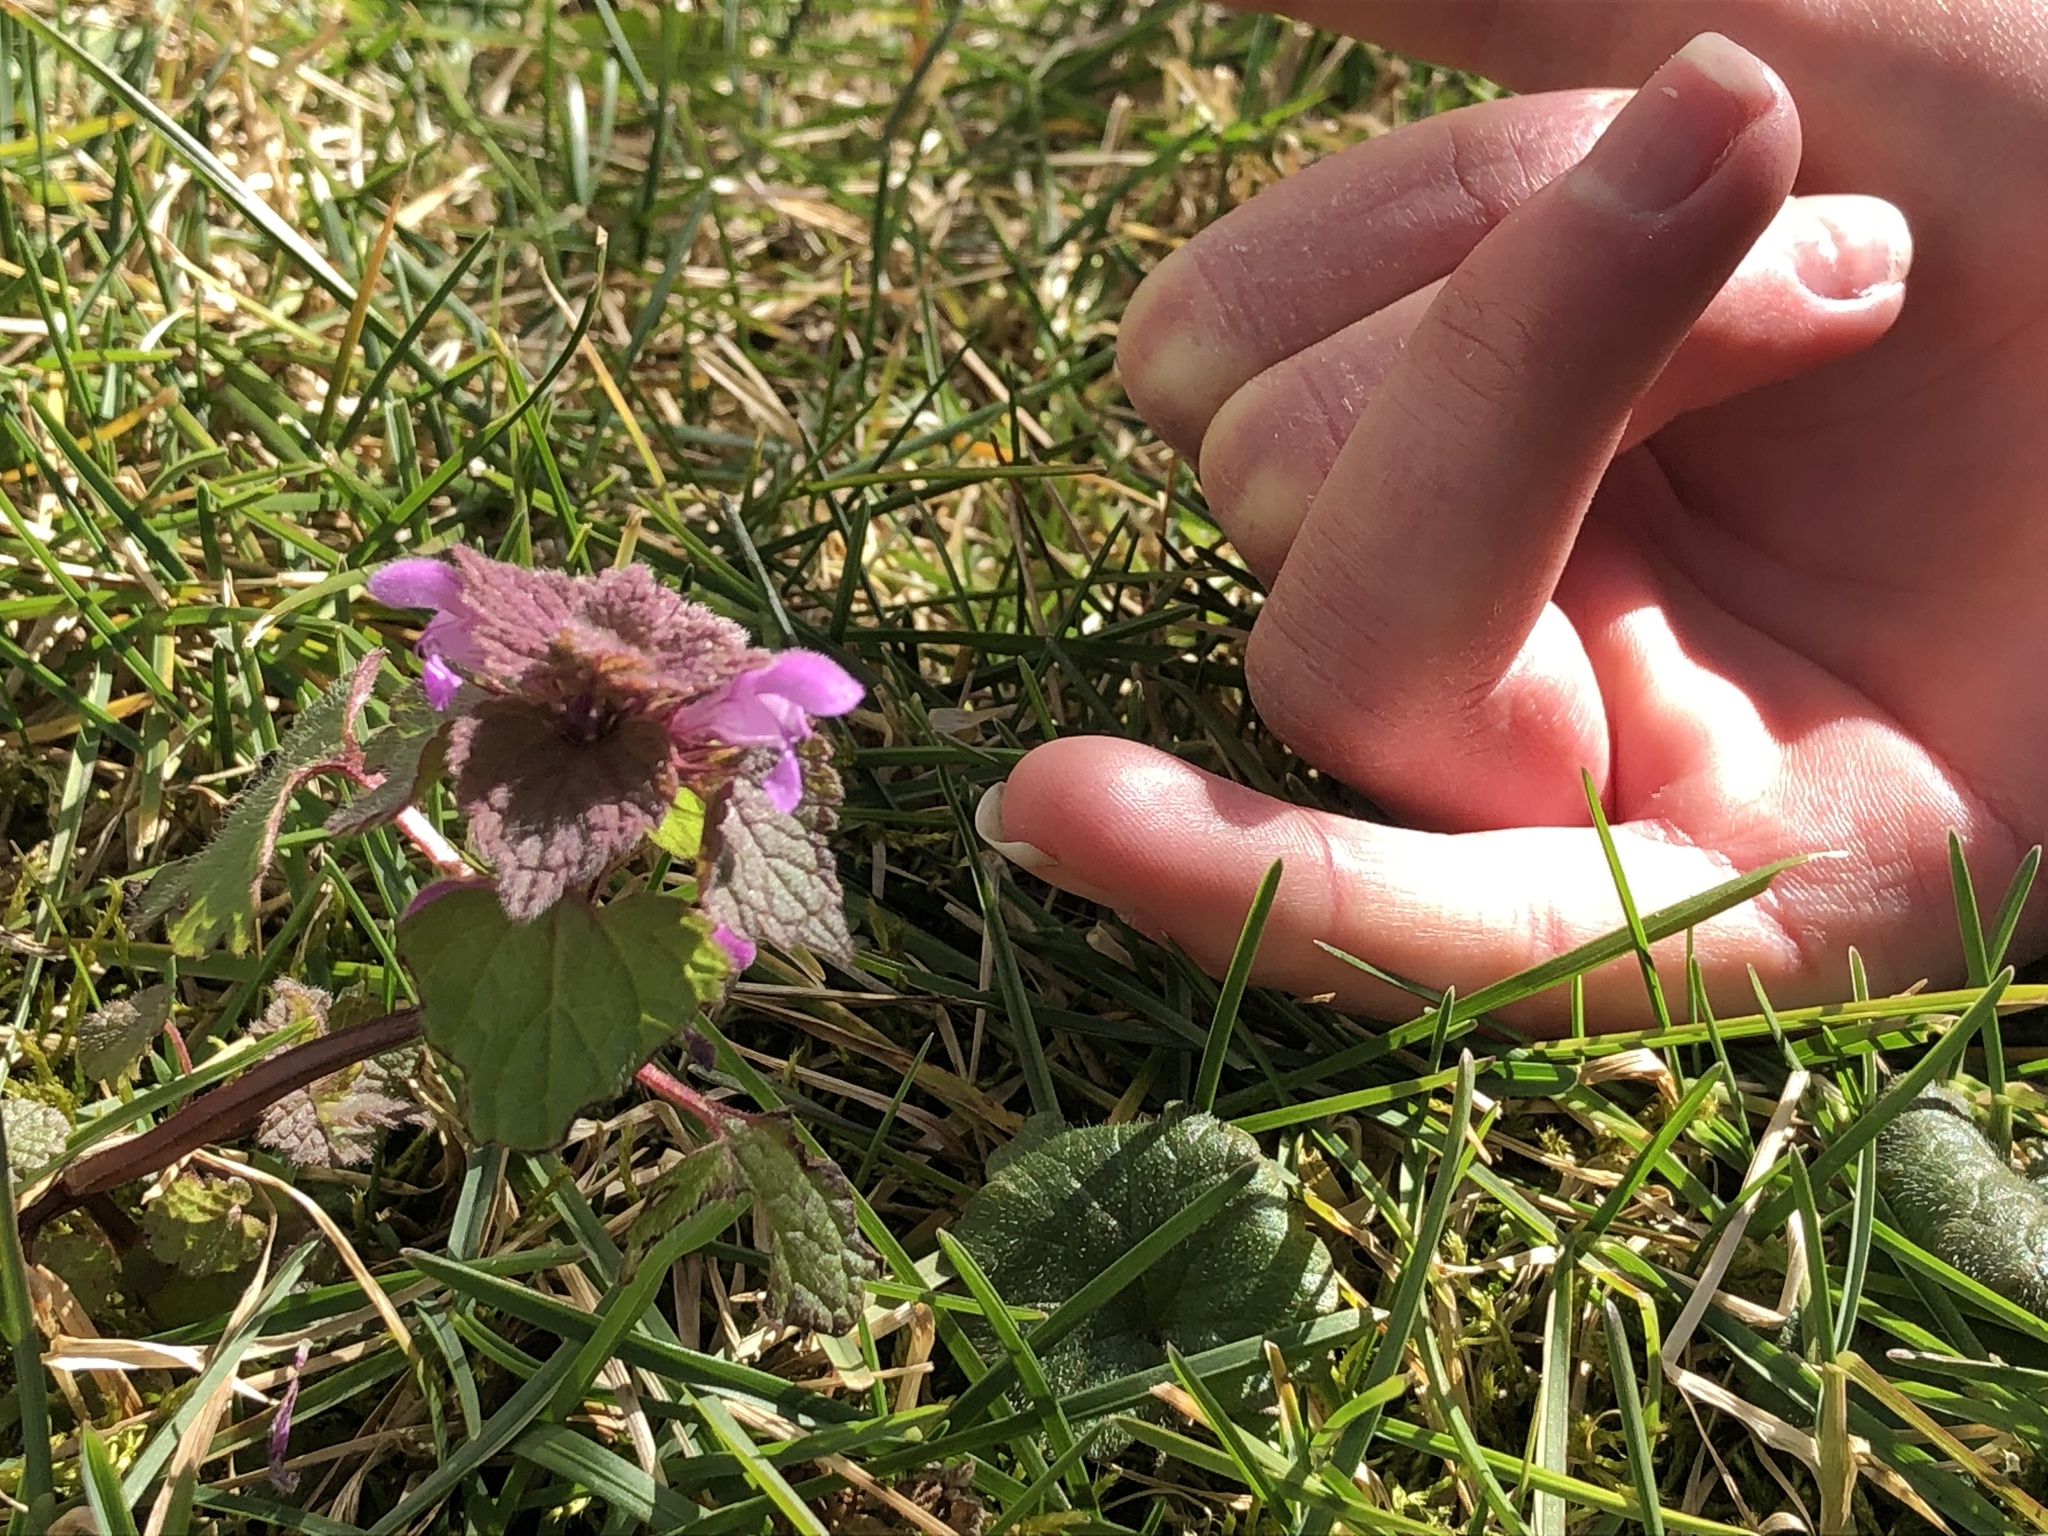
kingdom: Plantae
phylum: Tracheophyta
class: Magnoliopsida
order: Lamiales
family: Lamiaceae
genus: Lamium
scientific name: Lamium purpureum
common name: Red dead-nettle
